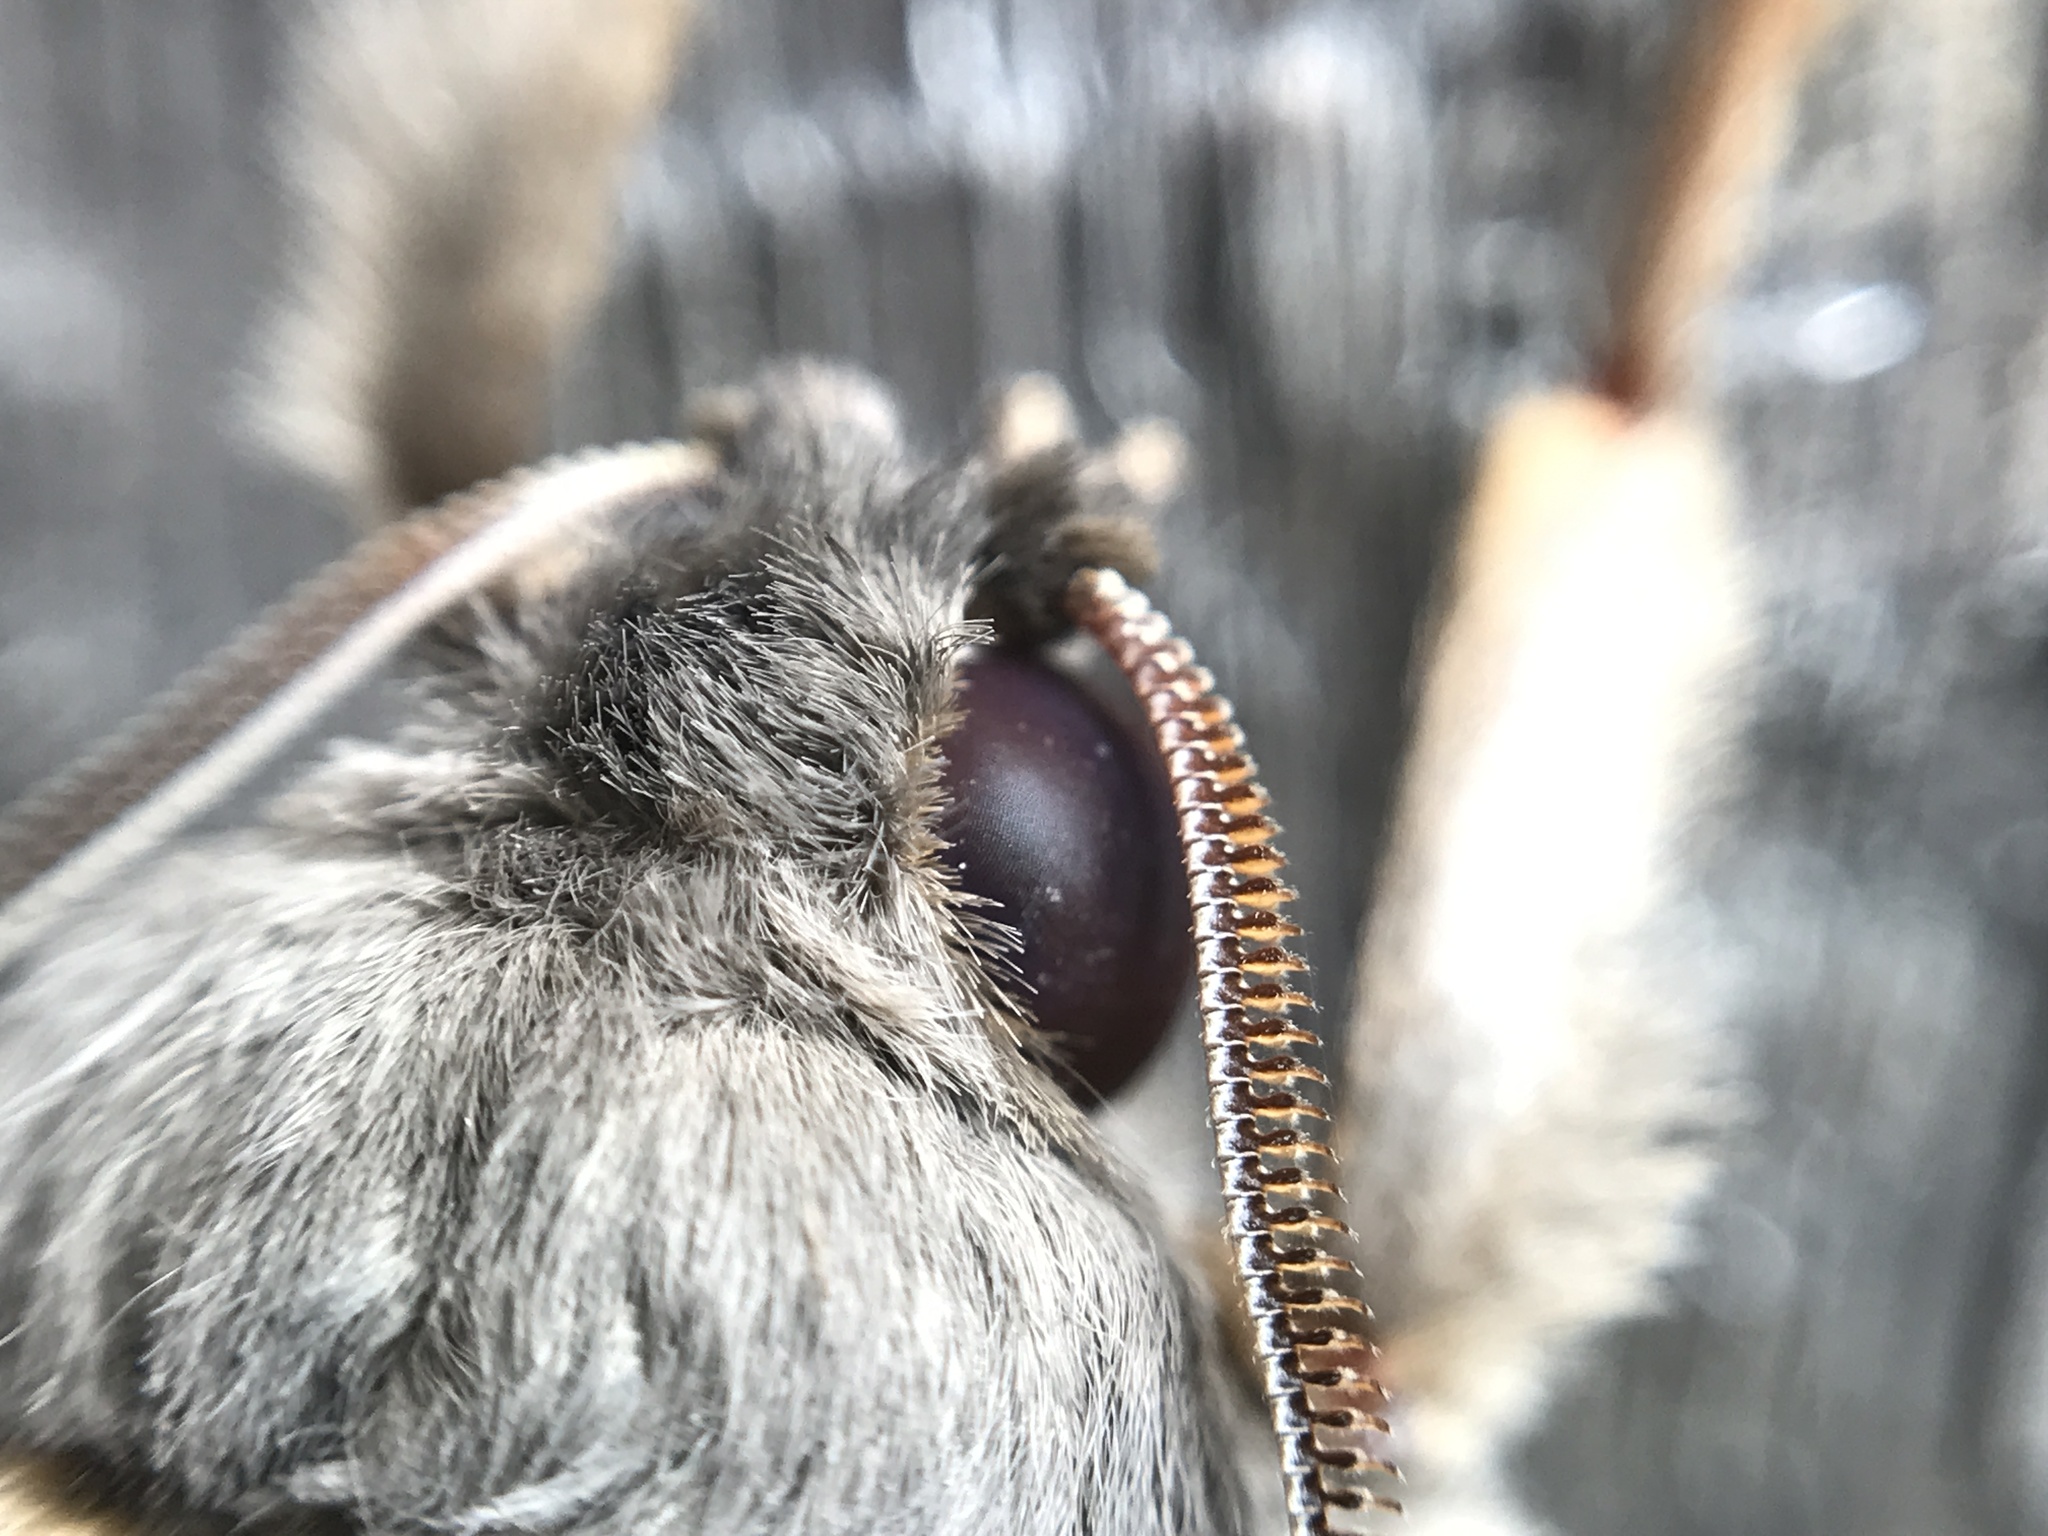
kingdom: Animalia
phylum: Arthropoda
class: Insecta
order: Lepidoptera
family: Hepialidae
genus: Abantiades
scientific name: Abantiades argentata
